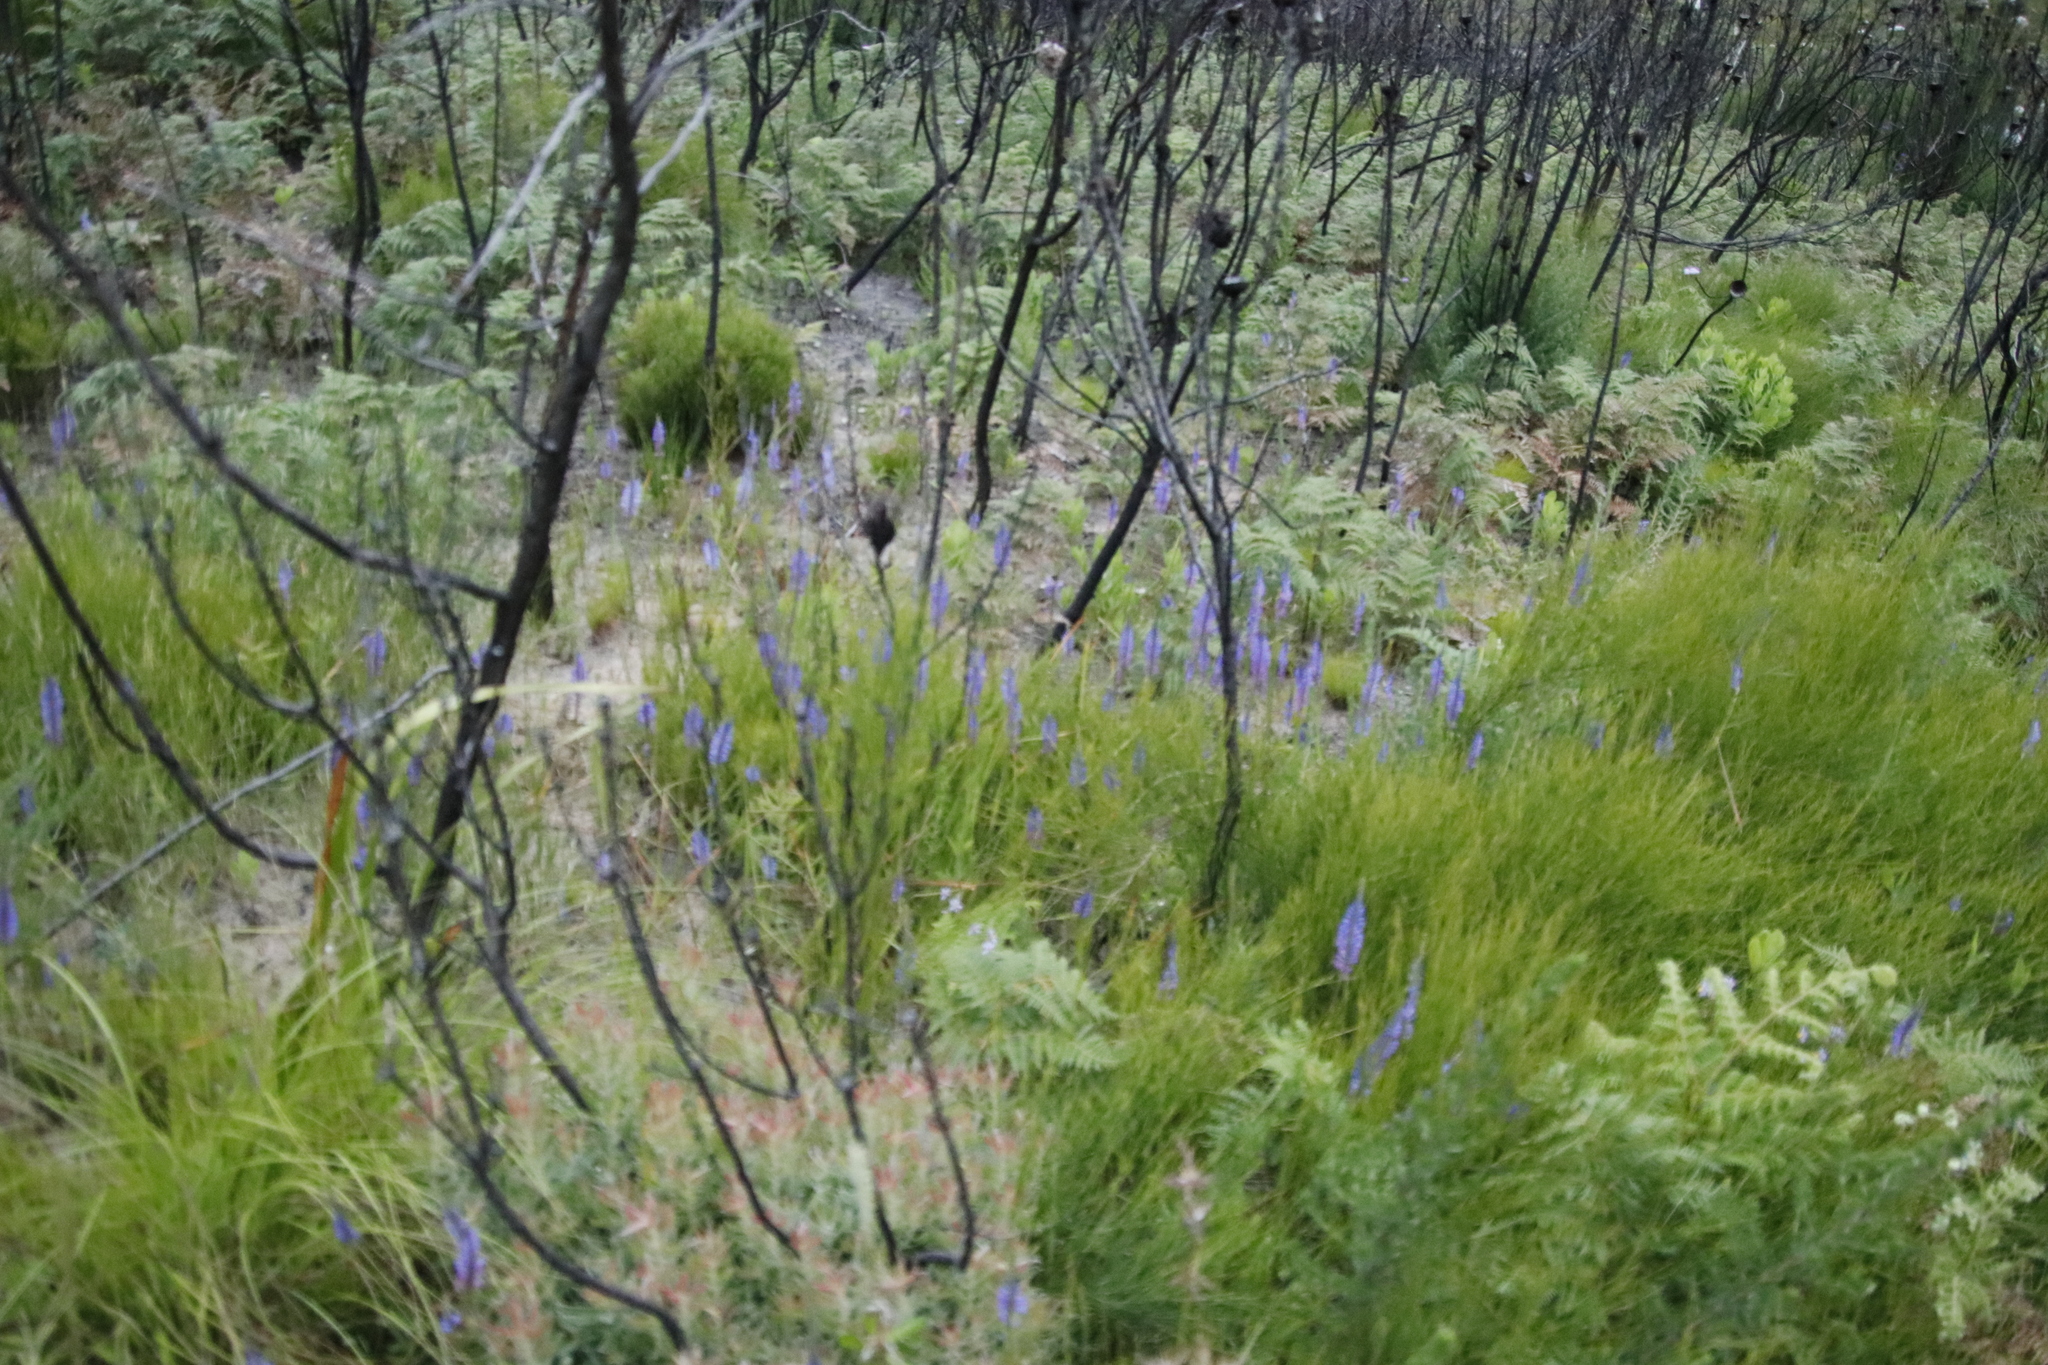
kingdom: Plantae
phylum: Tracheophyta
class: Liliopsida
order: Asparagales
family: Iridaceae
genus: Micranthus
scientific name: Micranthus plantagineus
